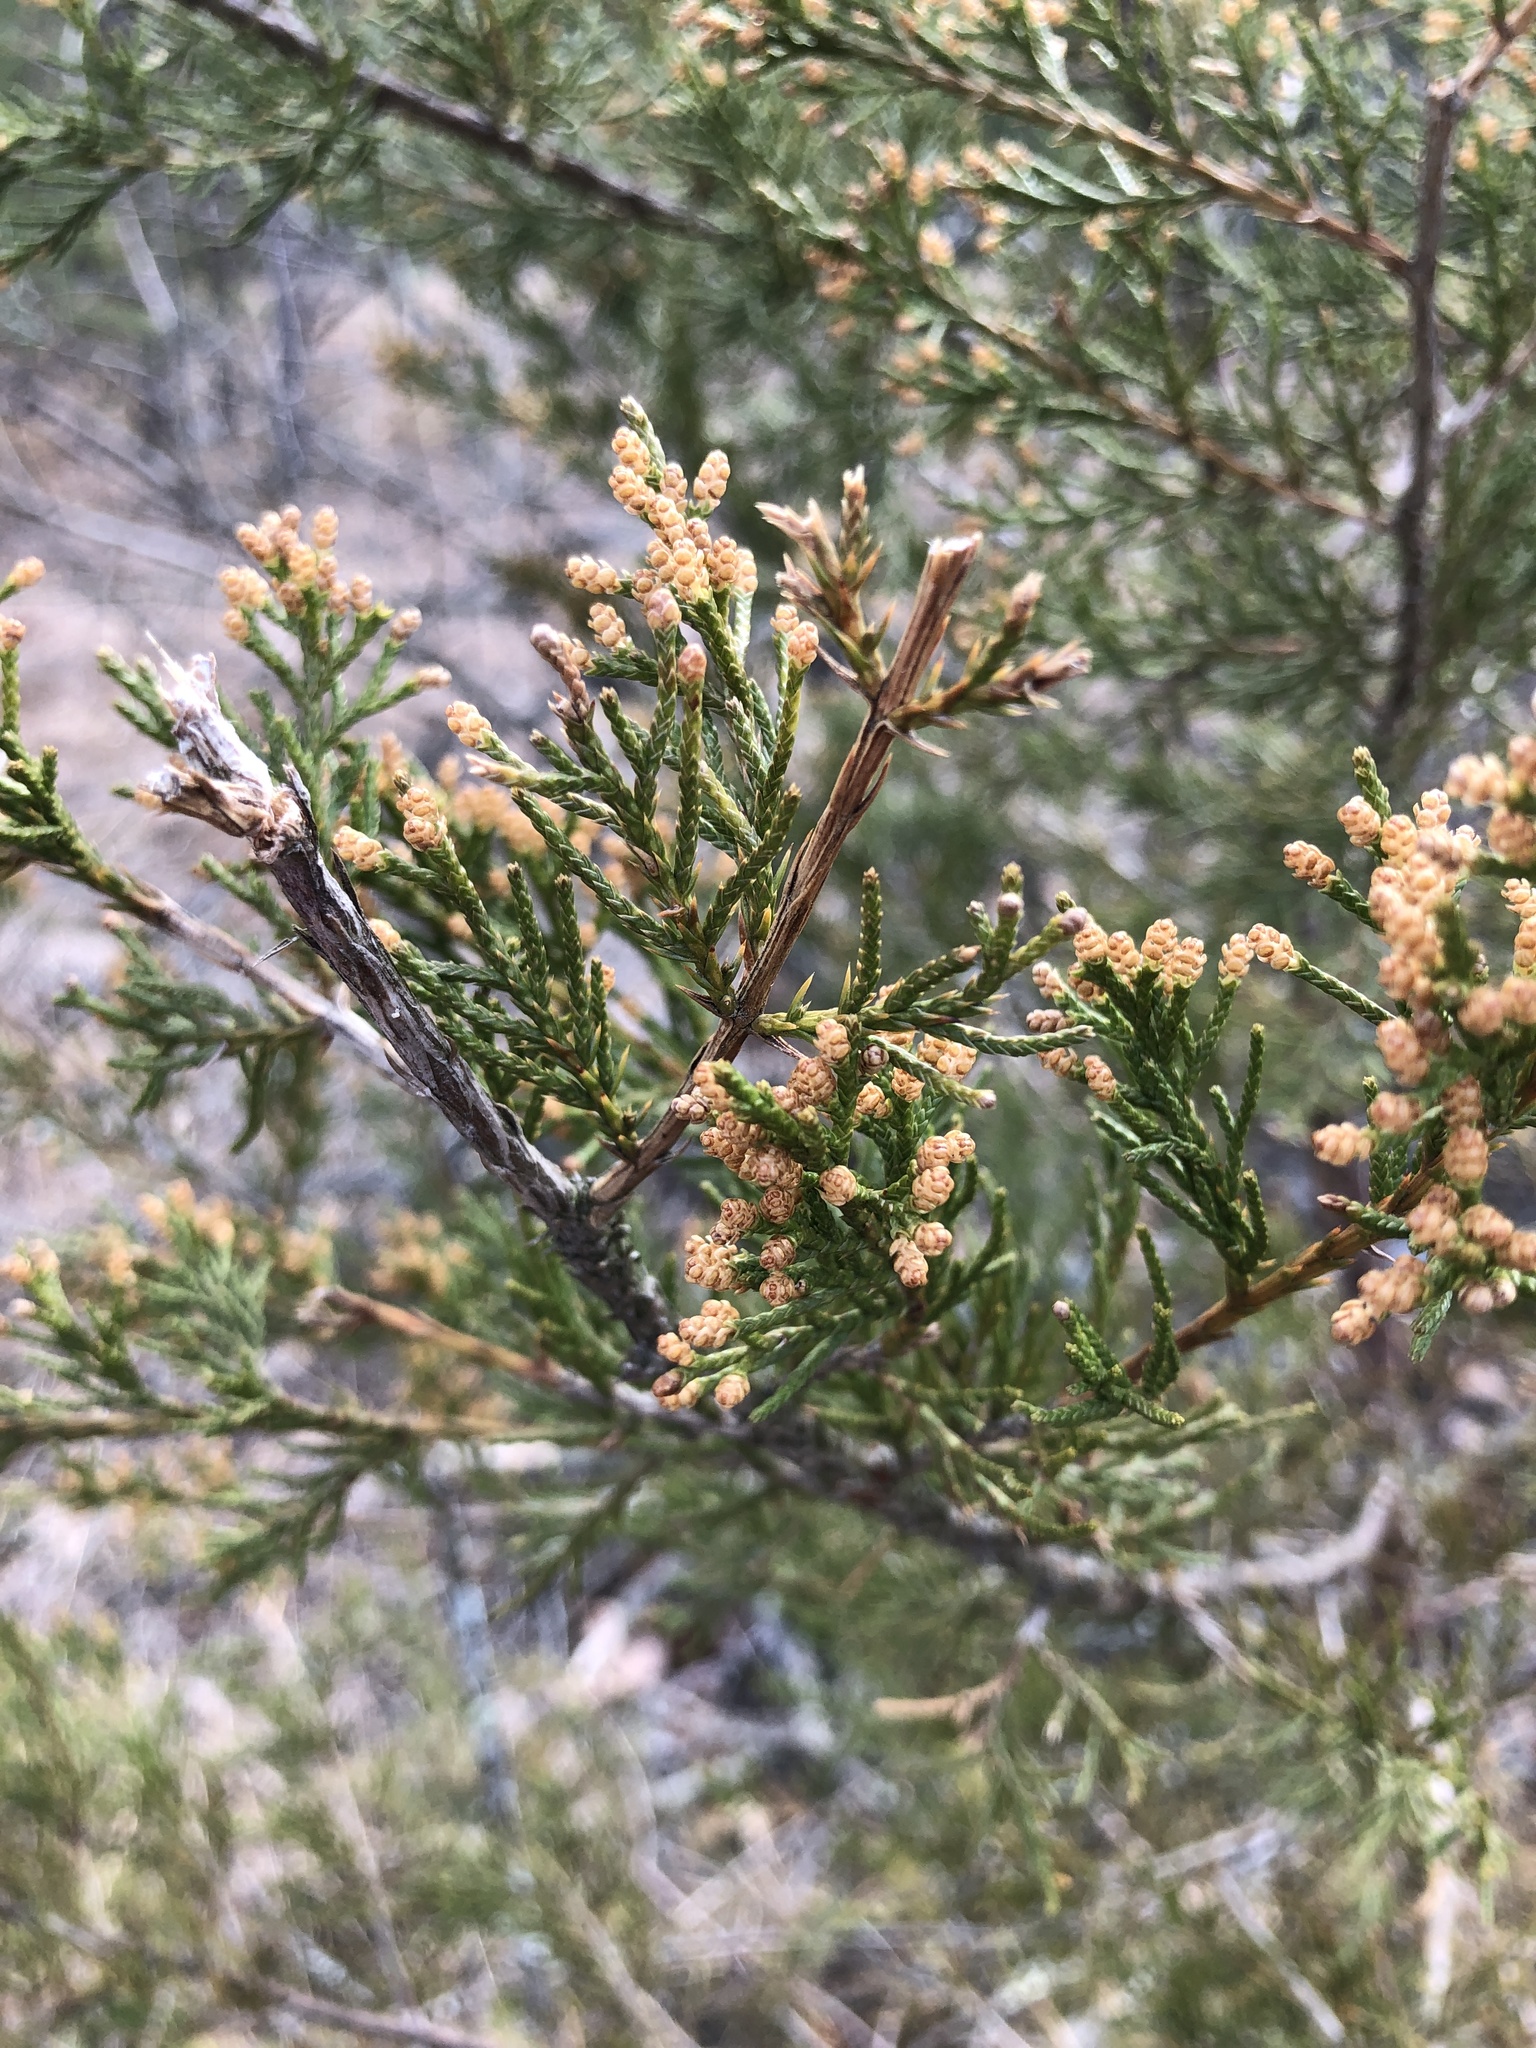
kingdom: Plantae
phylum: Tracheophyta
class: Pinopsida
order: Pinales
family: Cupressaceae
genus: Juniperus
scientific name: Juniperus virginiana
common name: Red juniper
